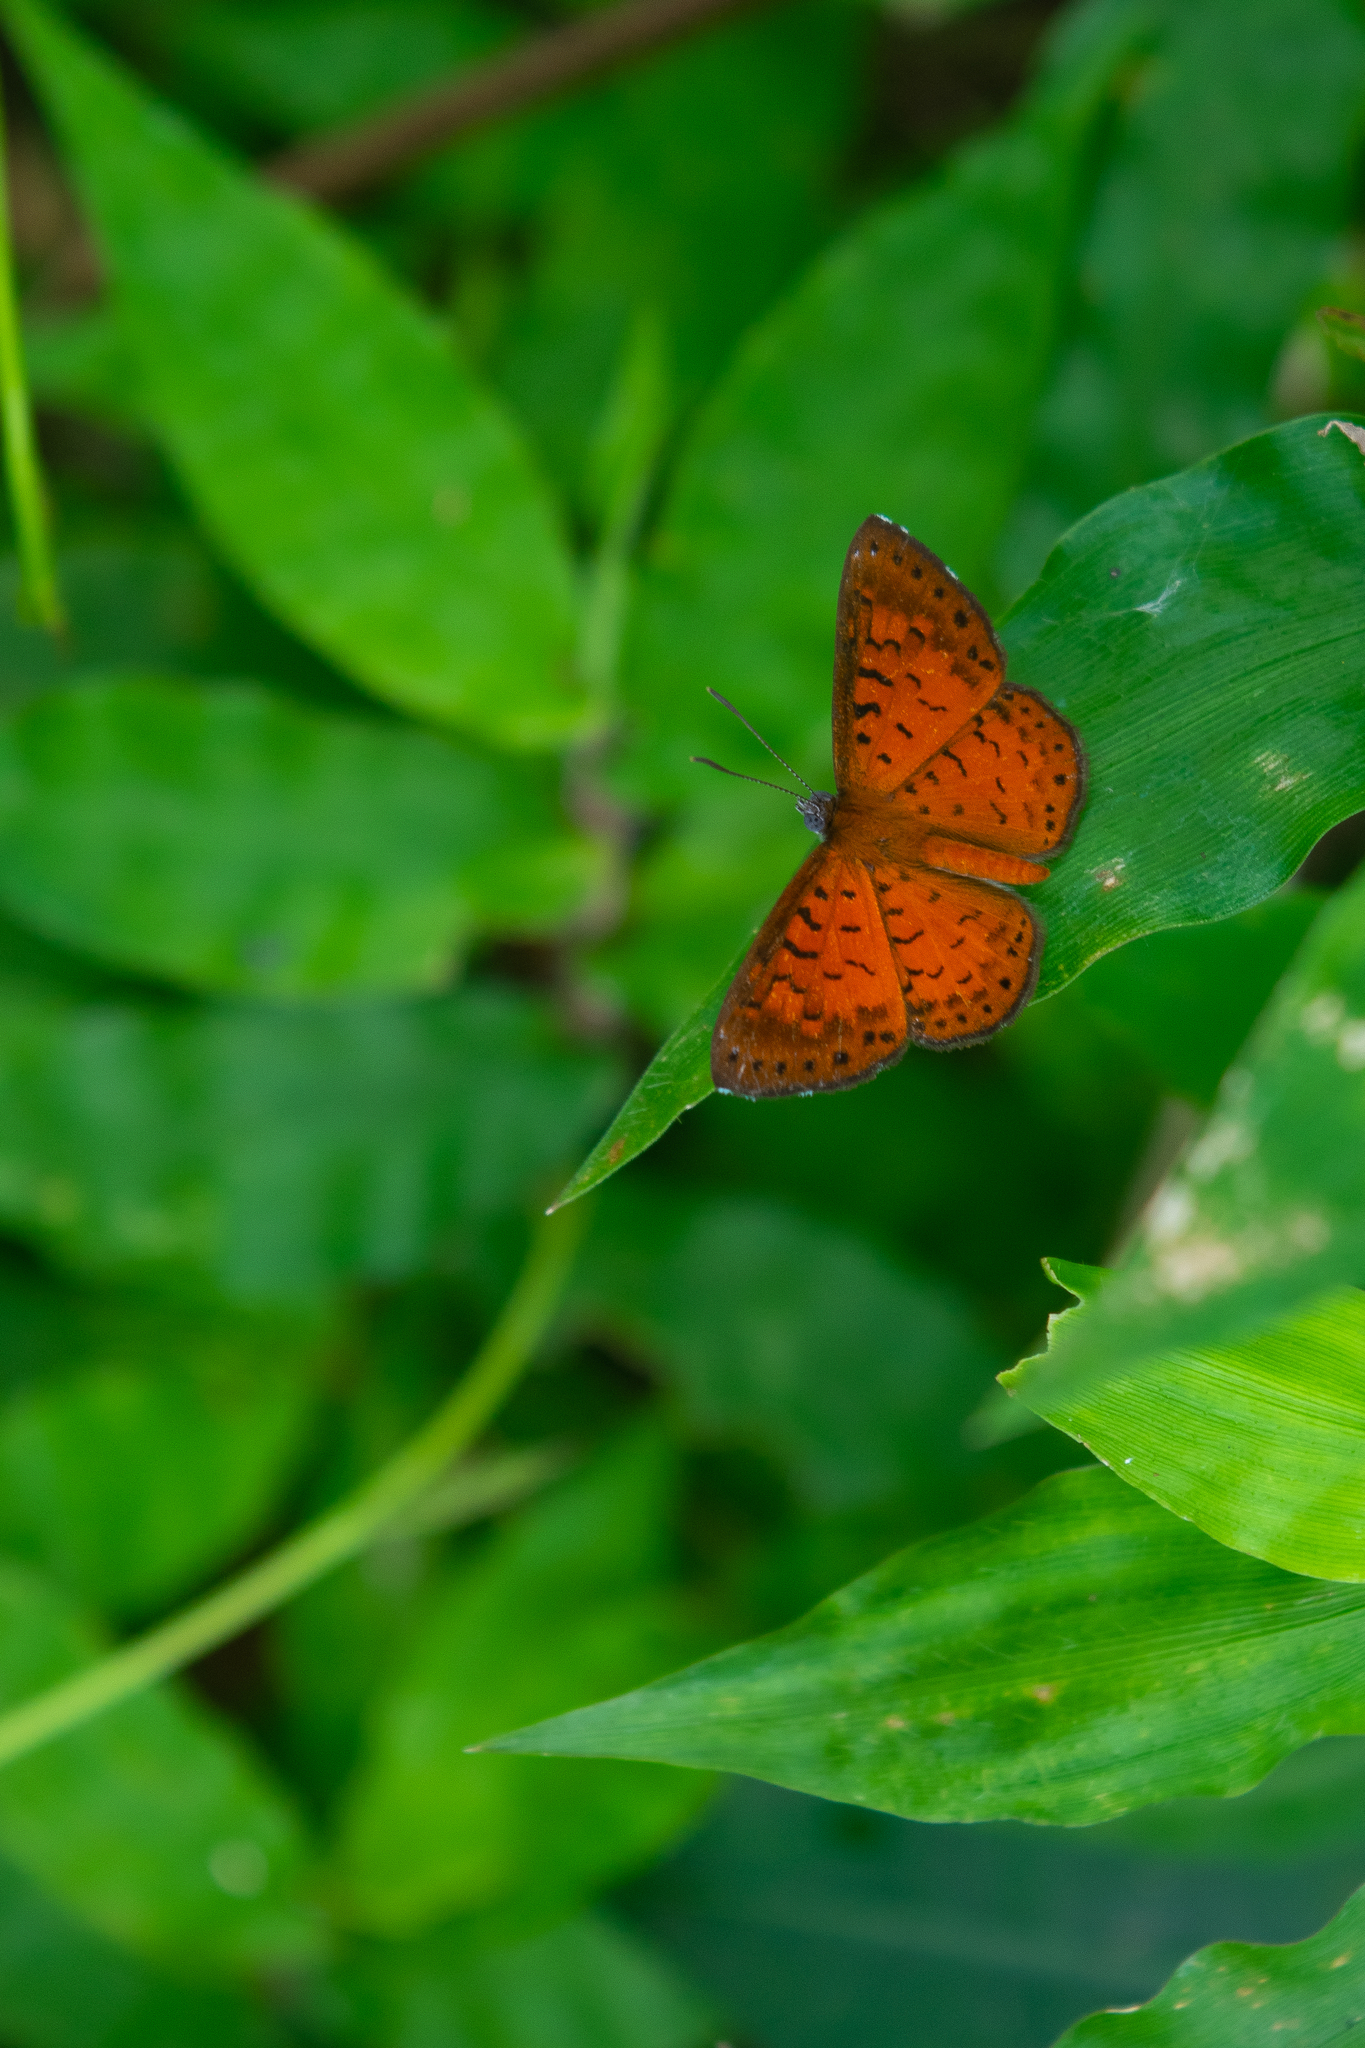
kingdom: Animalia
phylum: Arthropoda
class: Insecta
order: Lepidoptera
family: Riodinidae
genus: Polystichtis
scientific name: Polystichtis lucianus
